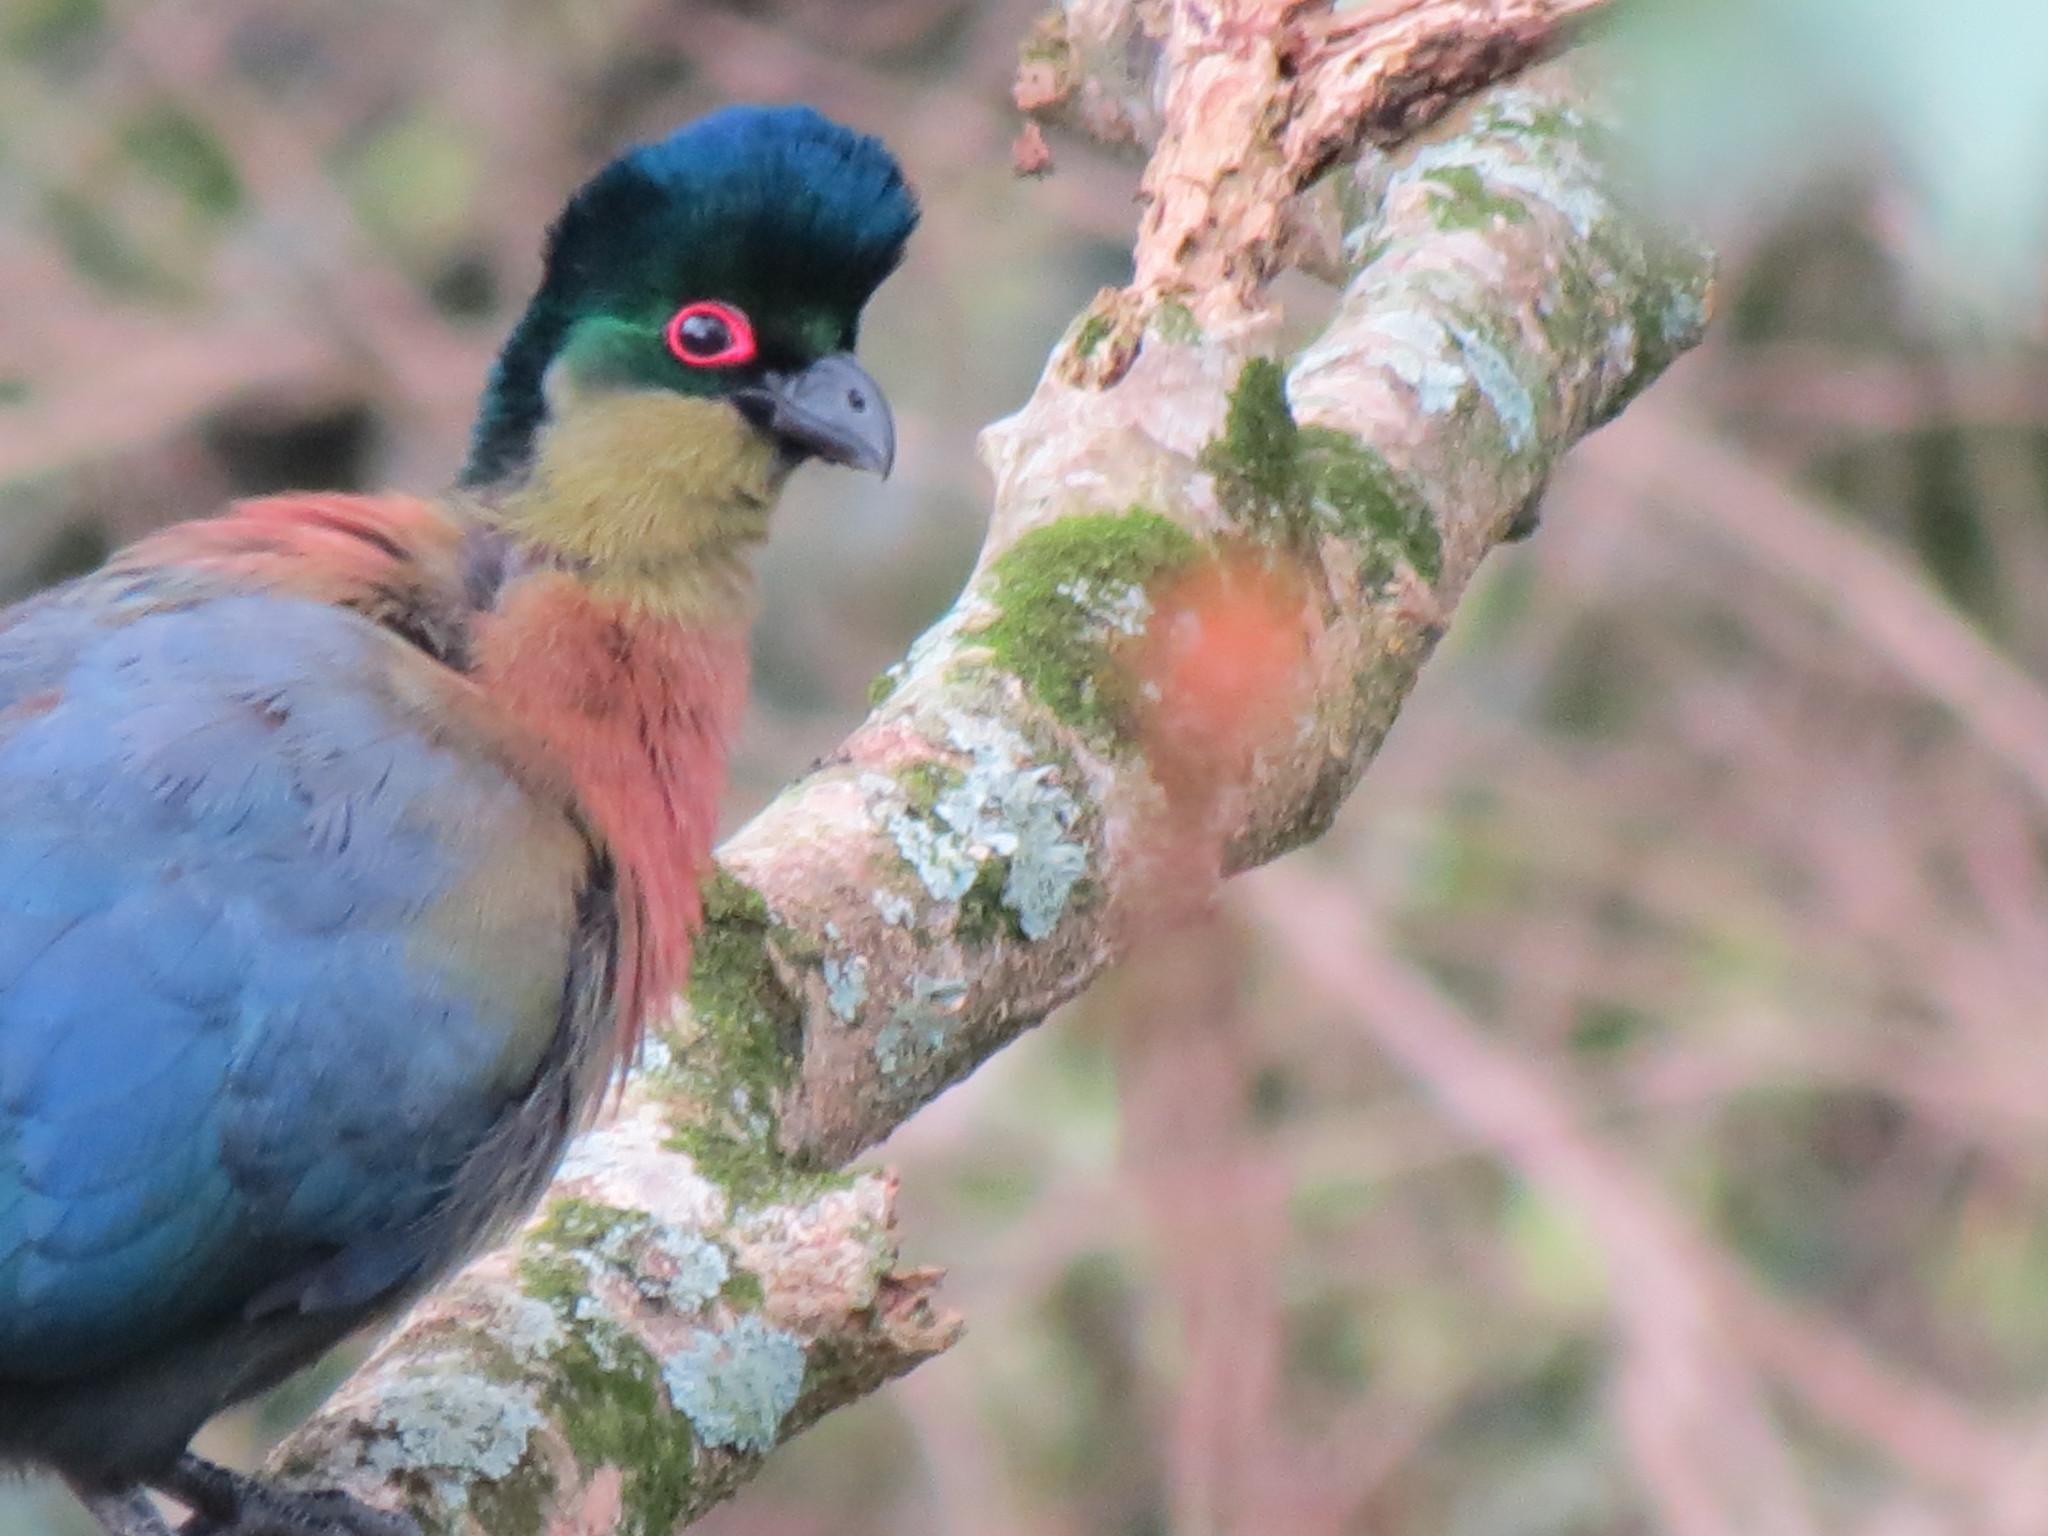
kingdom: Animalia
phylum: Chordata
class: Aves
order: Musophagiformes
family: Musophagidae
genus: Tauraco
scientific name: Tauraco porphyreolophus
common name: Purple-crested turaco
